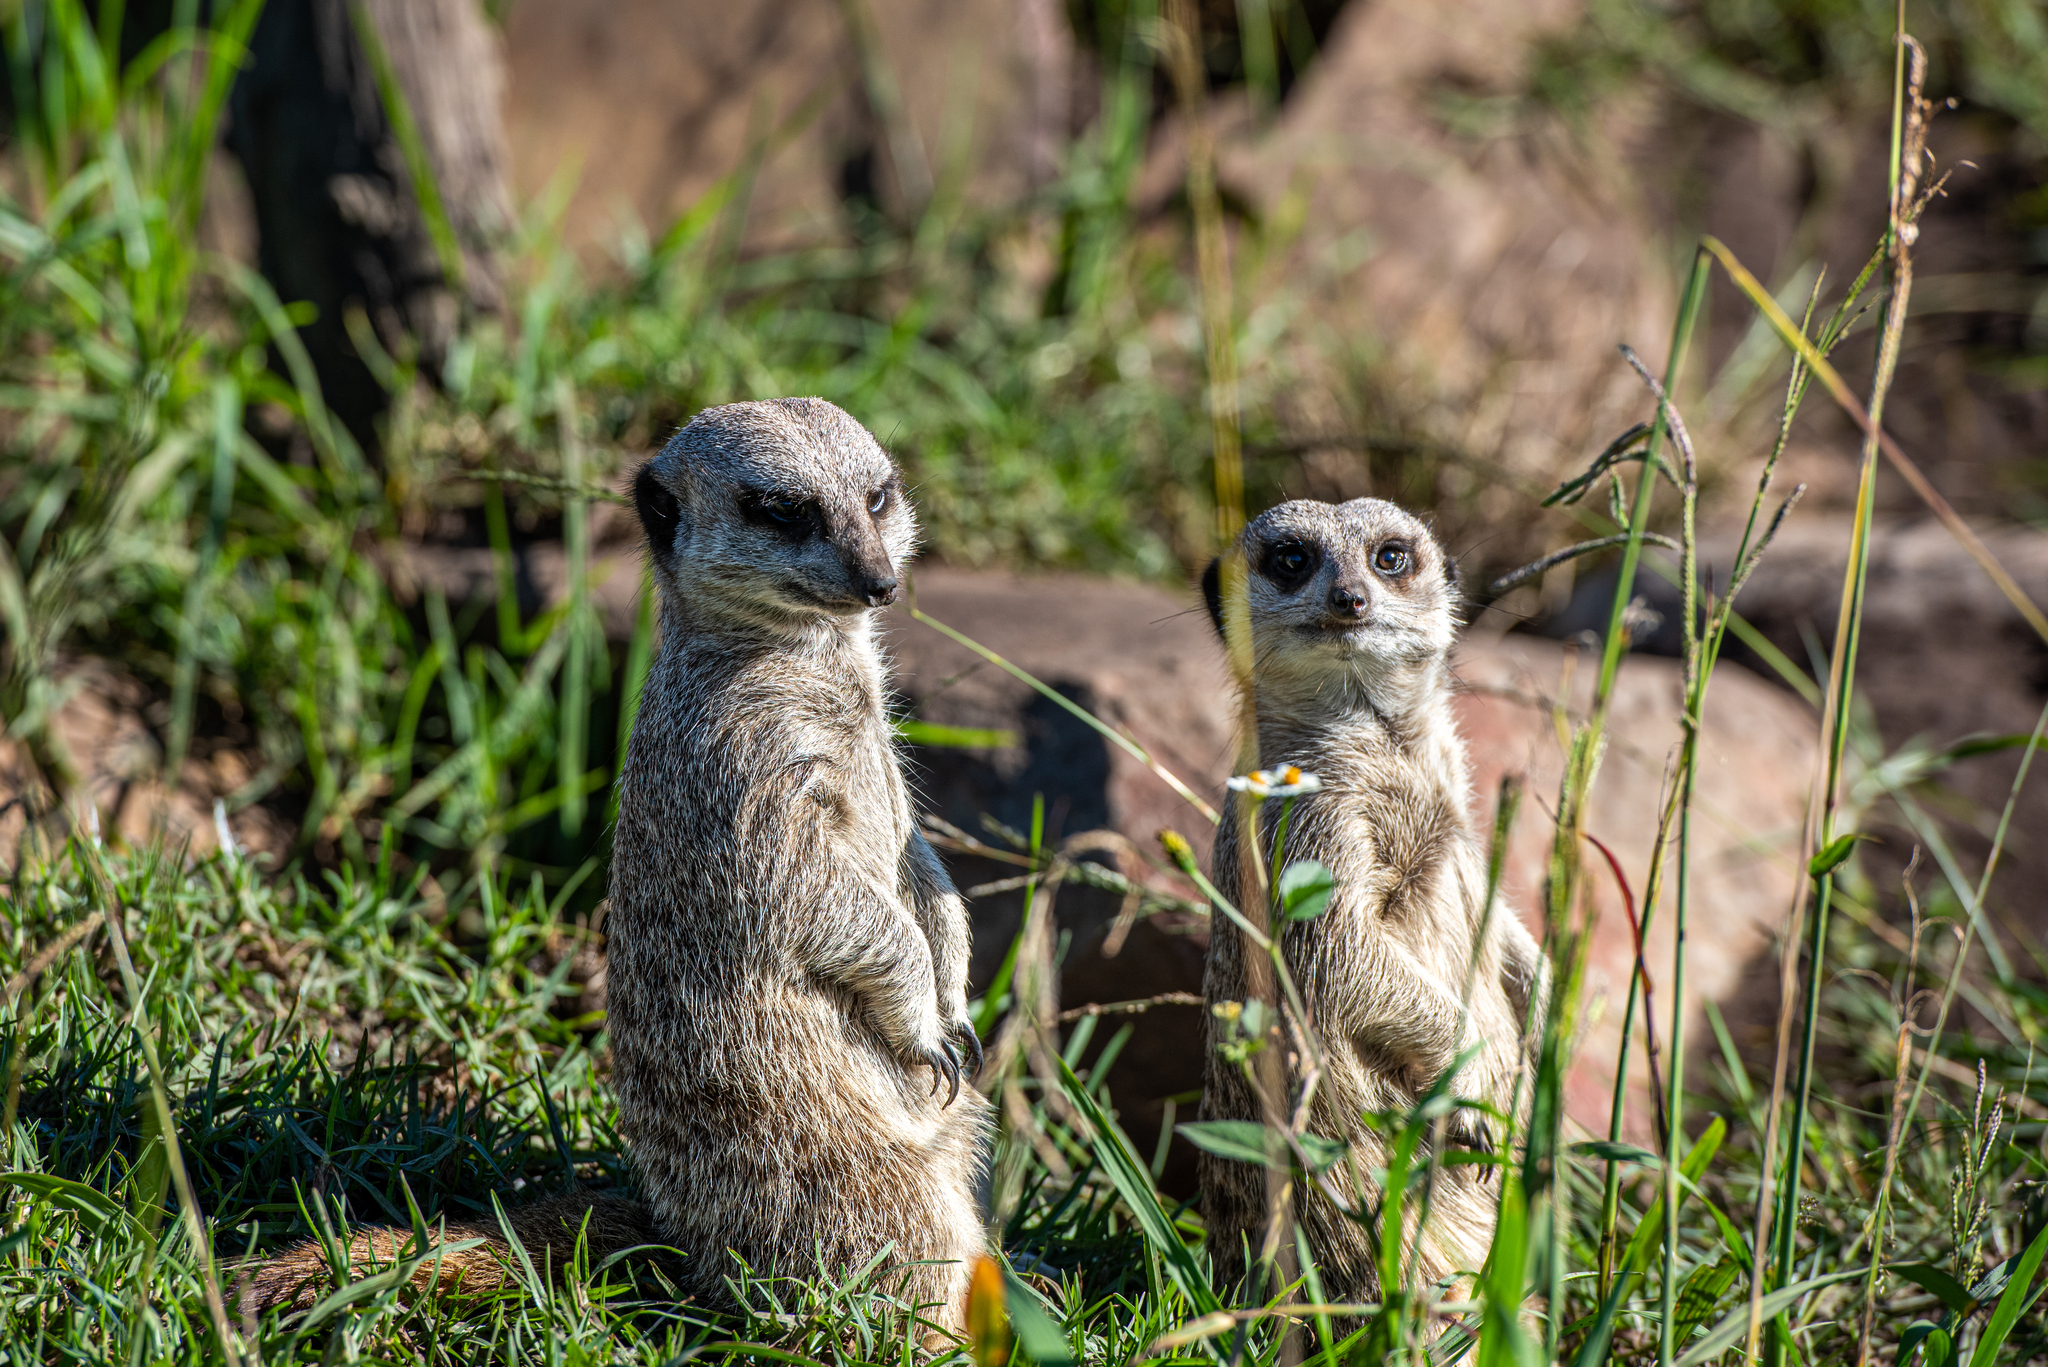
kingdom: Animalia
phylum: Chordata
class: Mammalia
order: Carnivora
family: Herpestidae
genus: Suricata
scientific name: Suricata suricatta
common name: Meerkat
